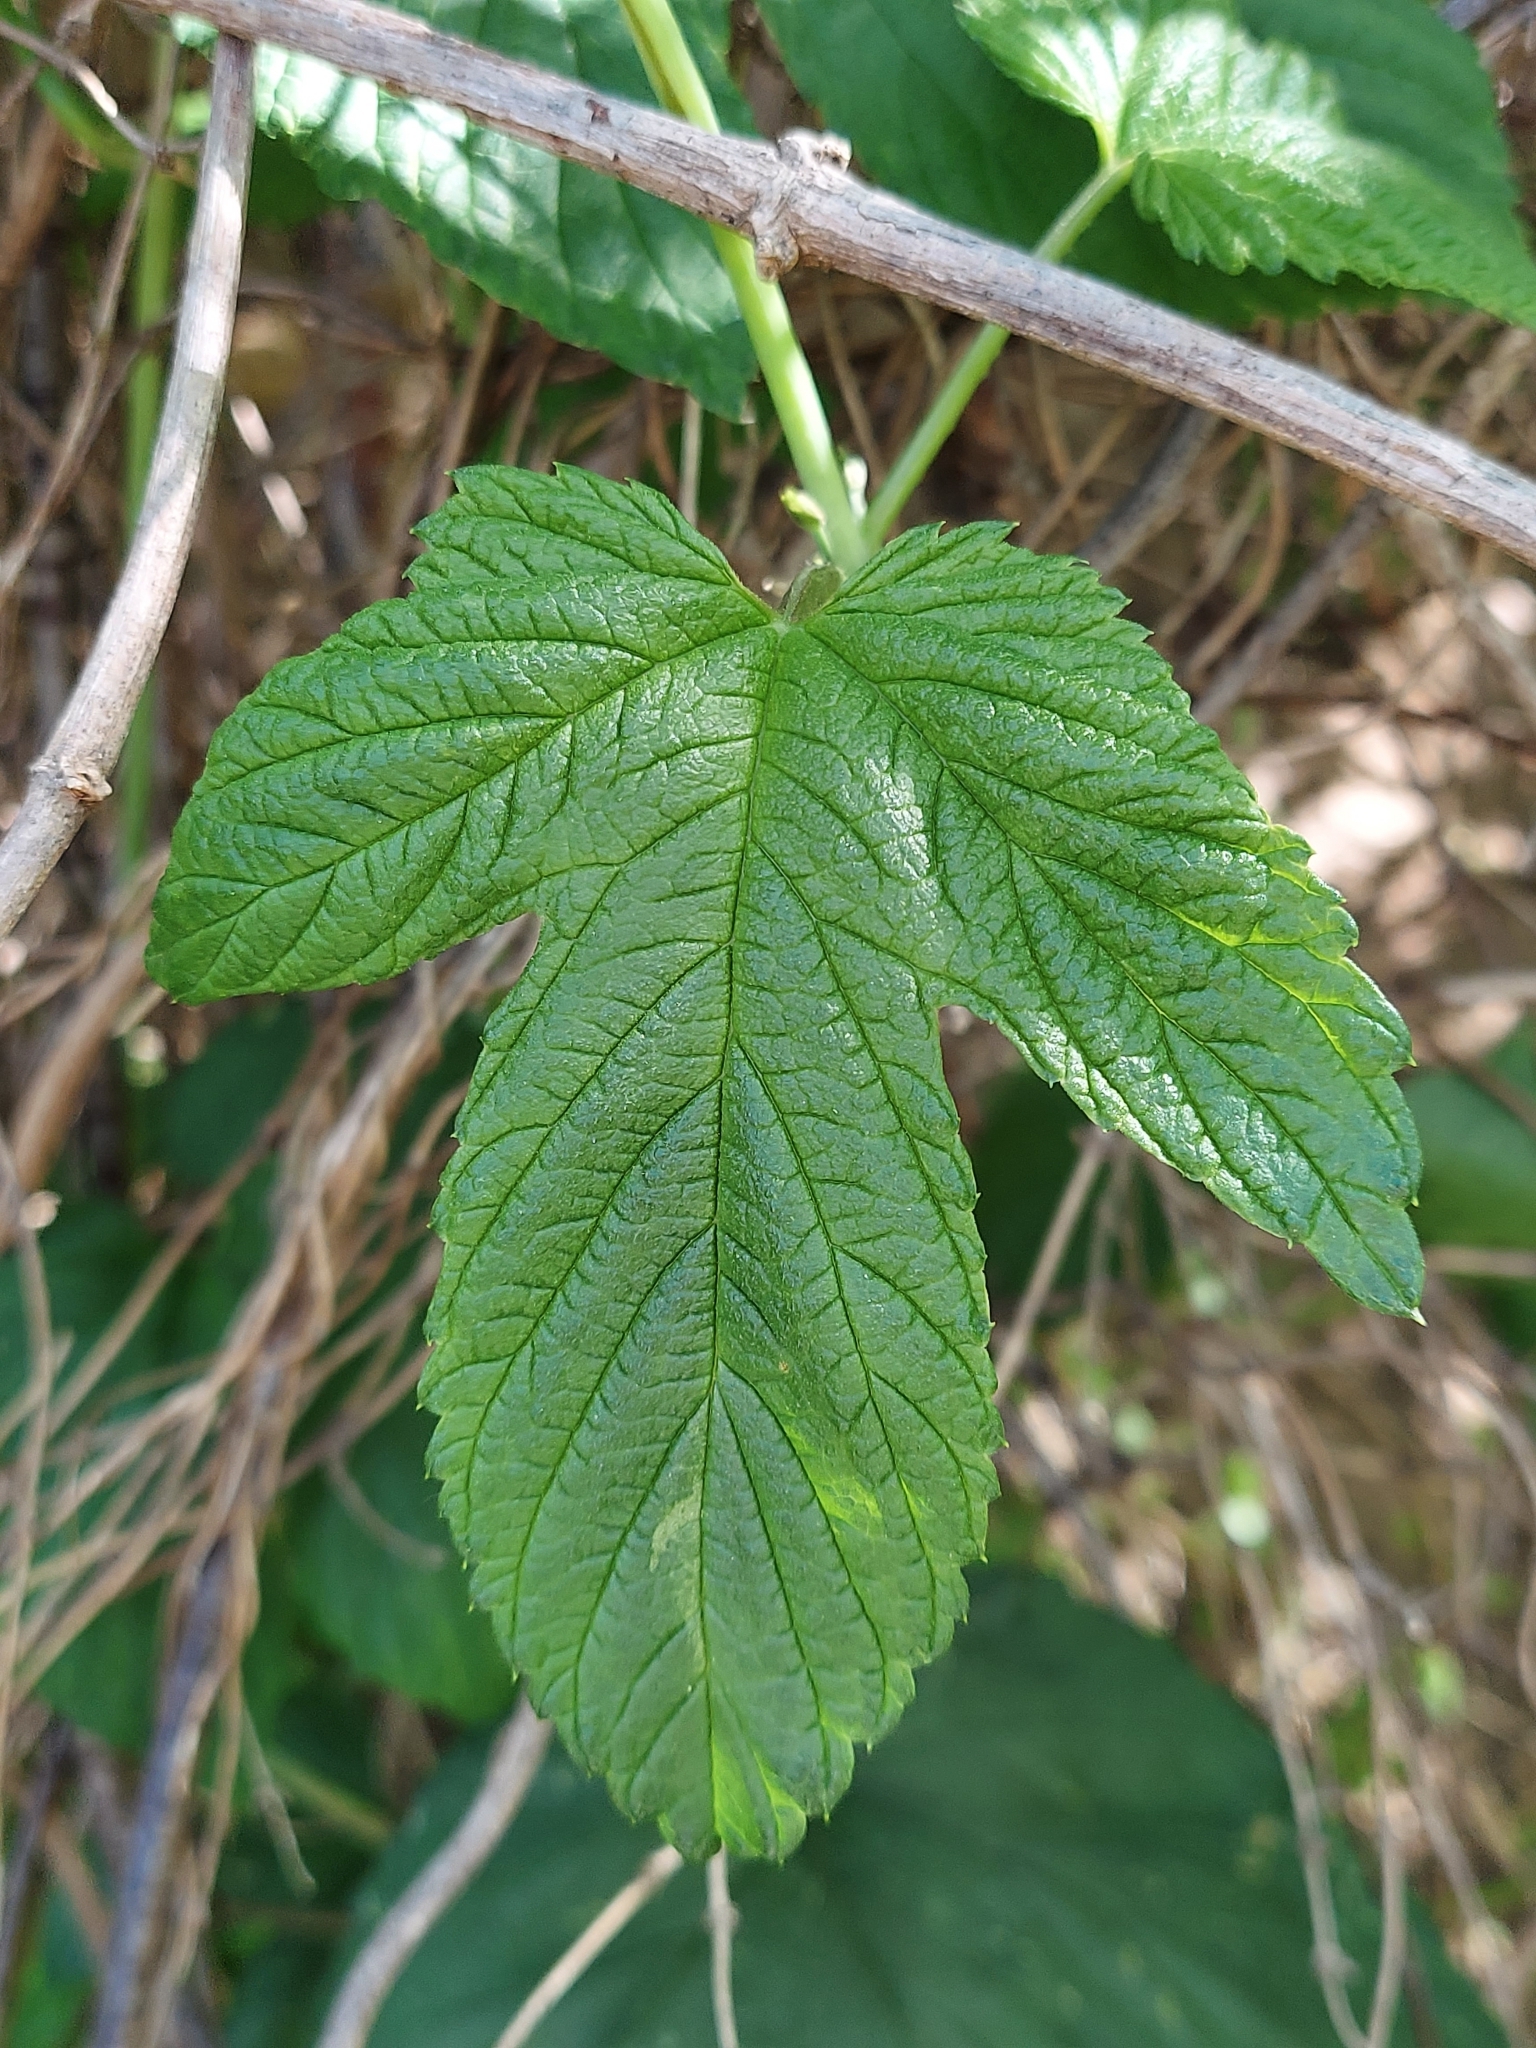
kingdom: Plantae
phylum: Tracheophyta
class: Magnoliopsida
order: Rosales
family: Cannabaceae
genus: Humulus
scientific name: Humulus lupulus
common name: Hop
